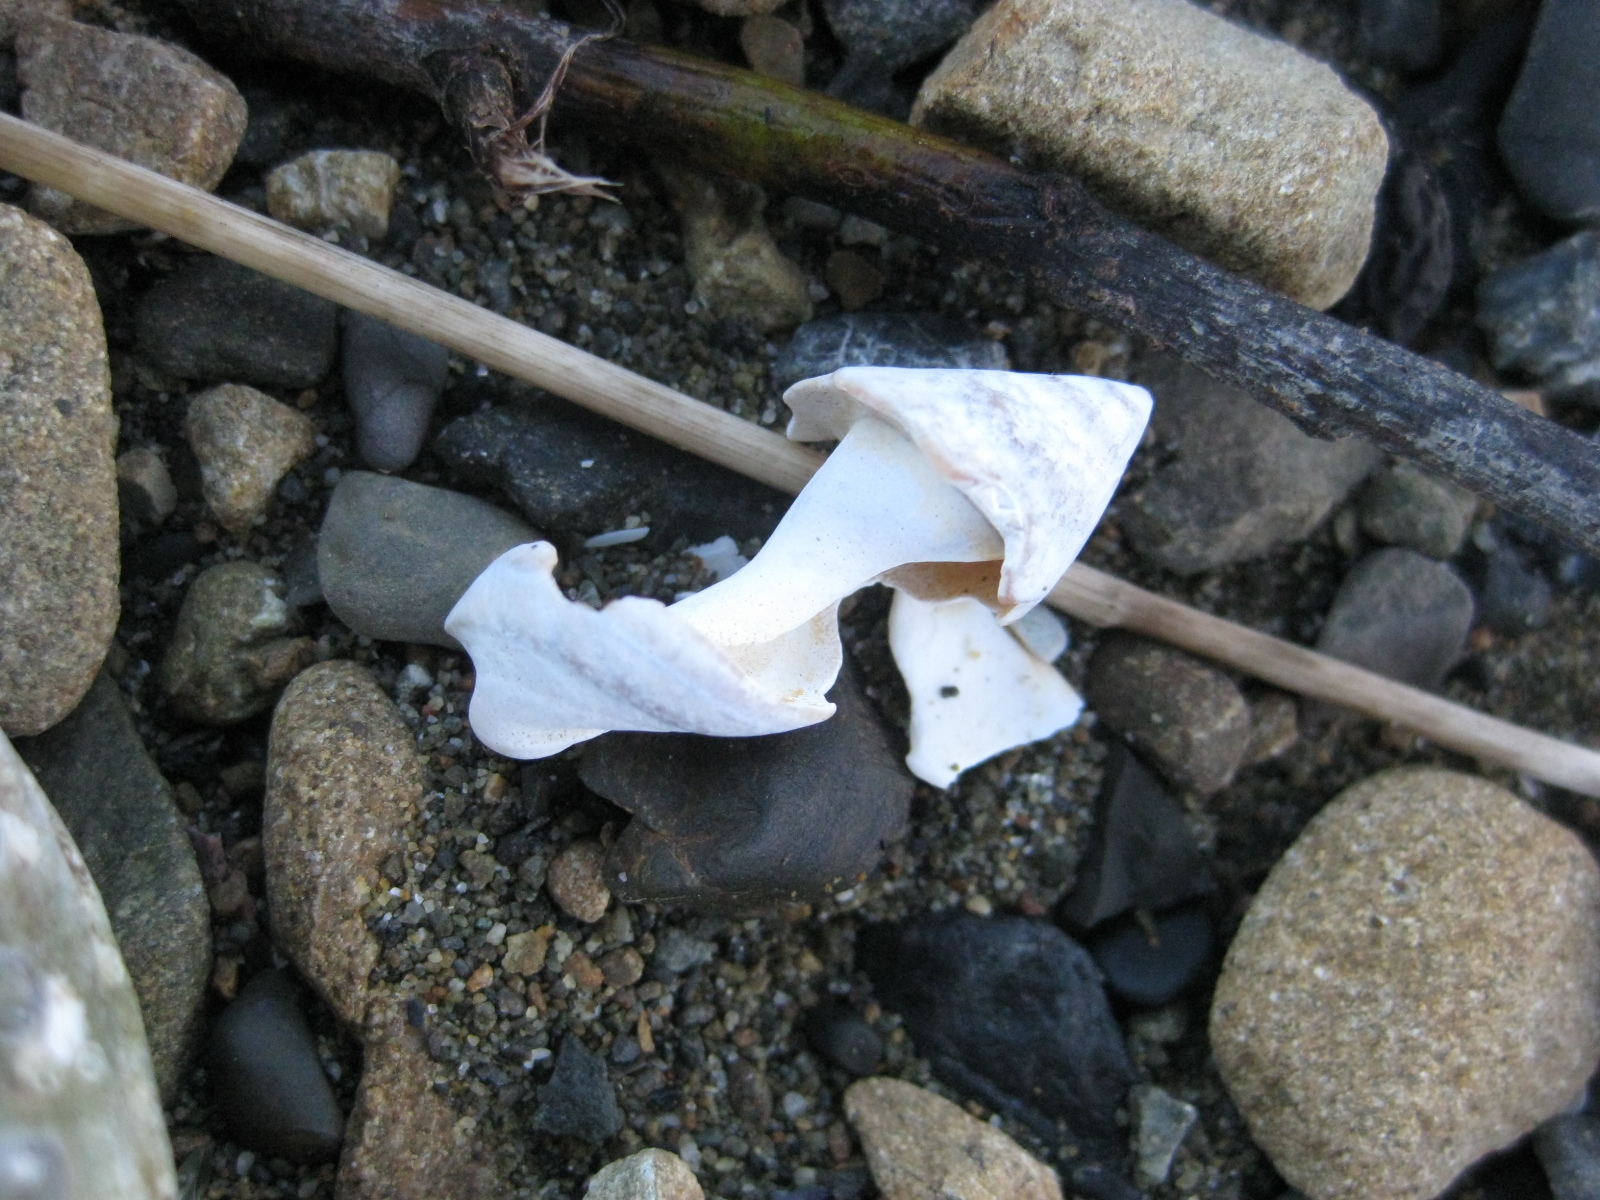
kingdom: Animalia
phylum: Mollusca
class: Gastropoda
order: Neogastropoda
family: Ancillariidae
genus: Amalda
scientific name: Amalda australis
